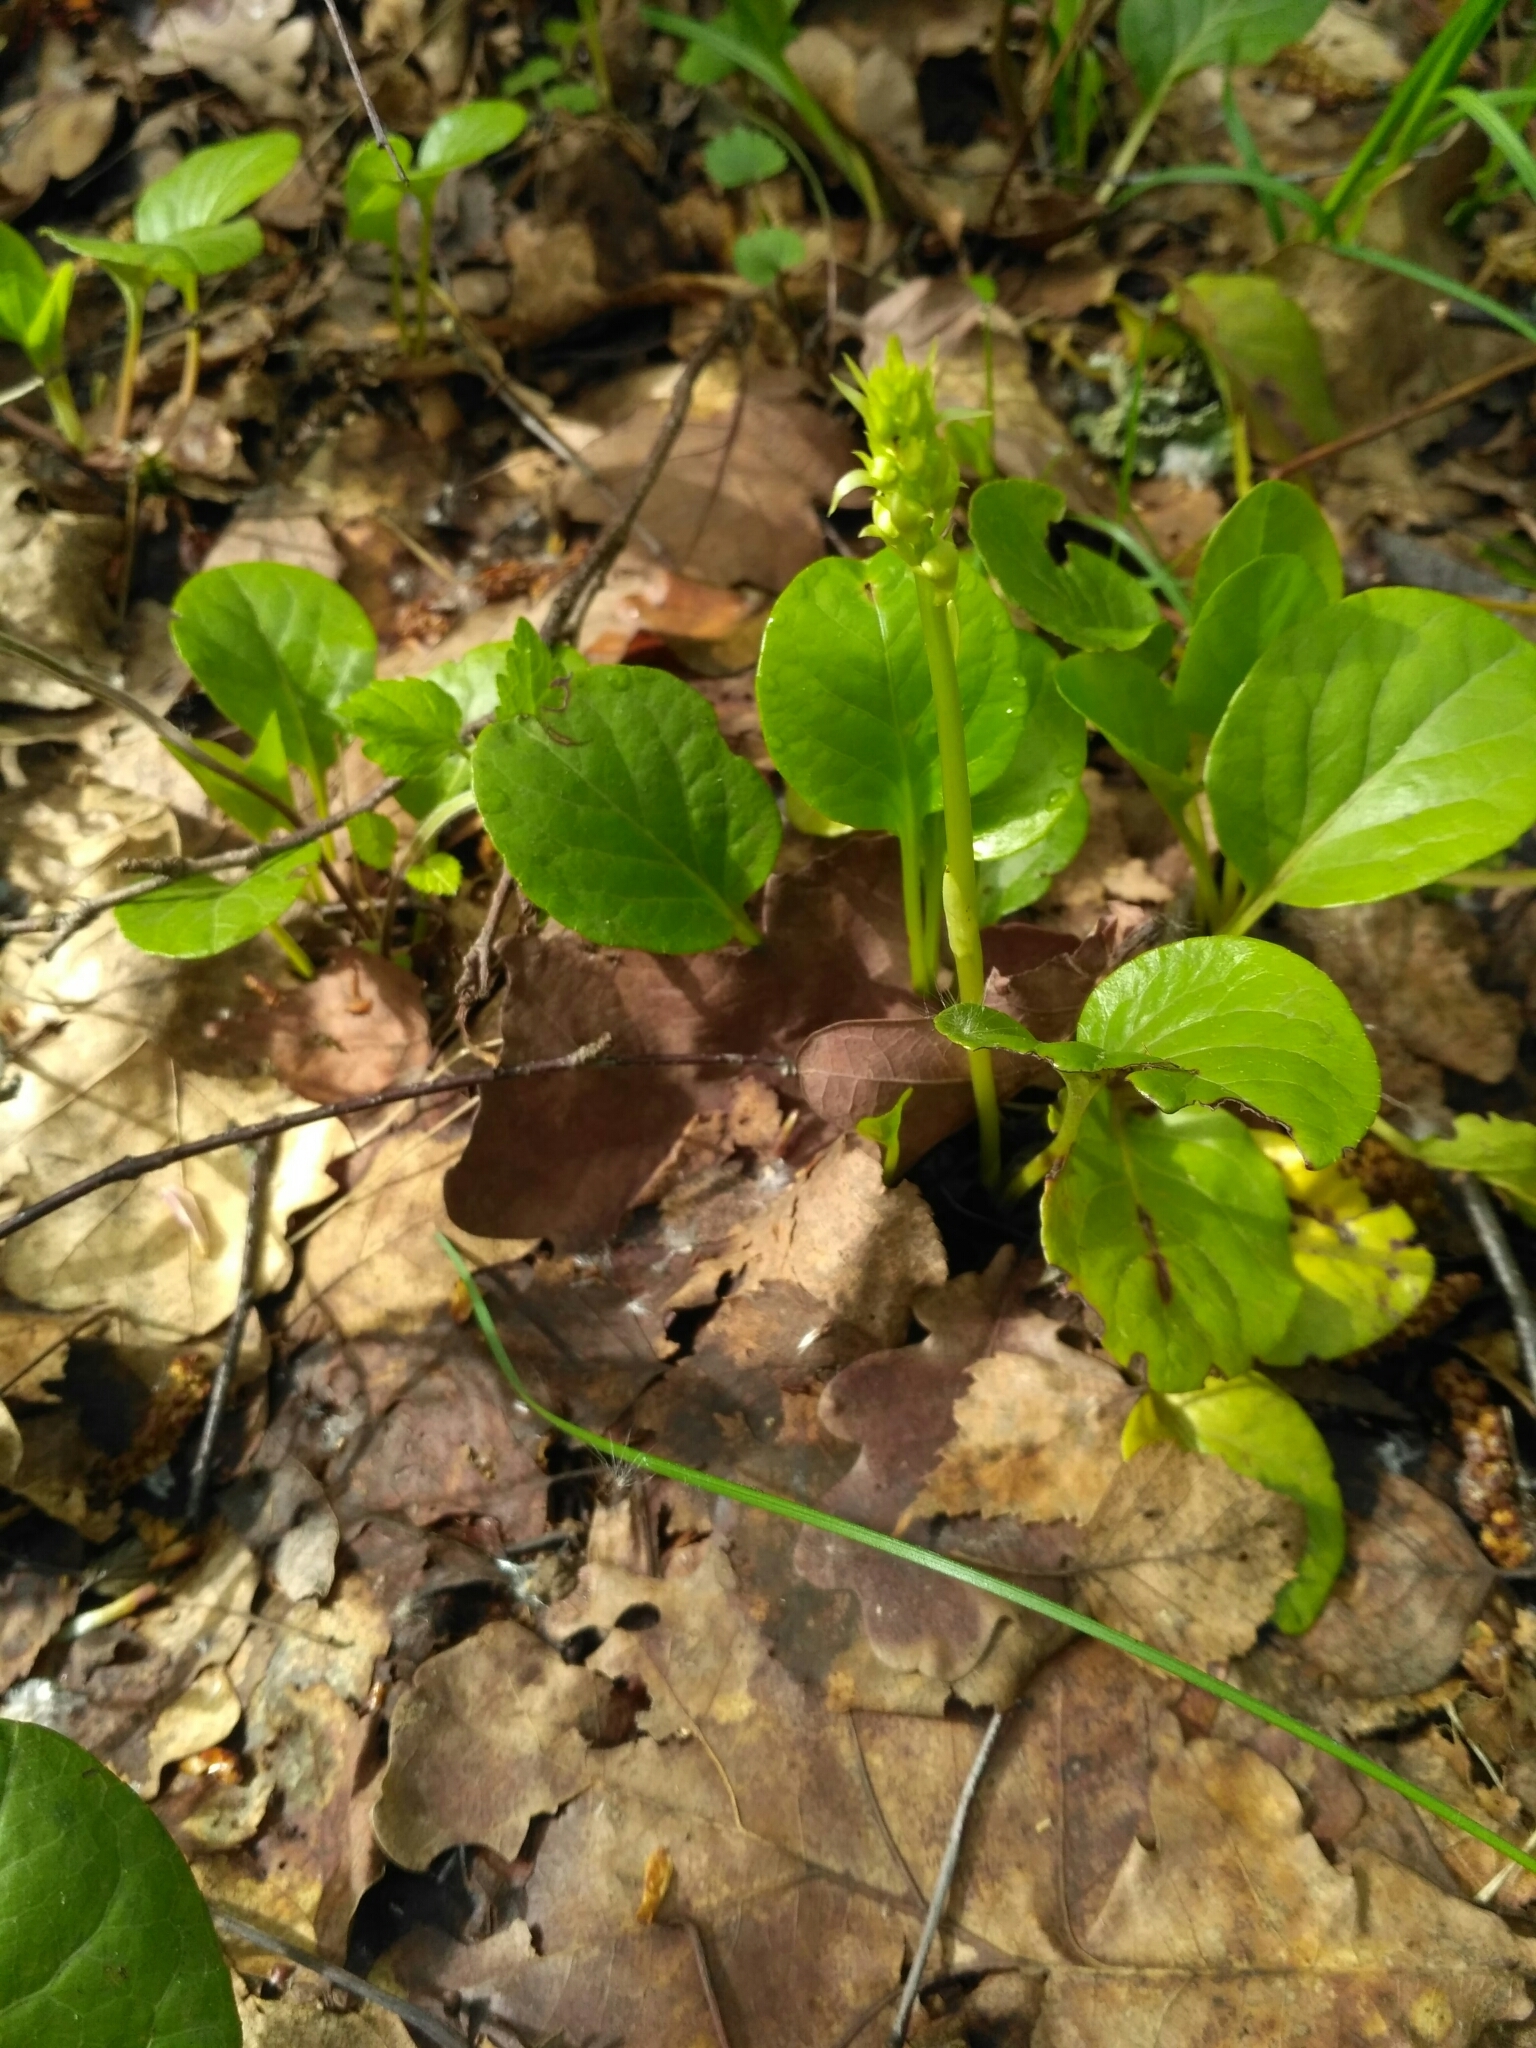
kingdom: Plantae
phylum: Tracheophyta
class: Magnoliopsida
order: Ericales
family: Ericaceae
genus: Pyrola
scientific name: Pyrola rotundifolia
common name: Round-leaved wintergreen
